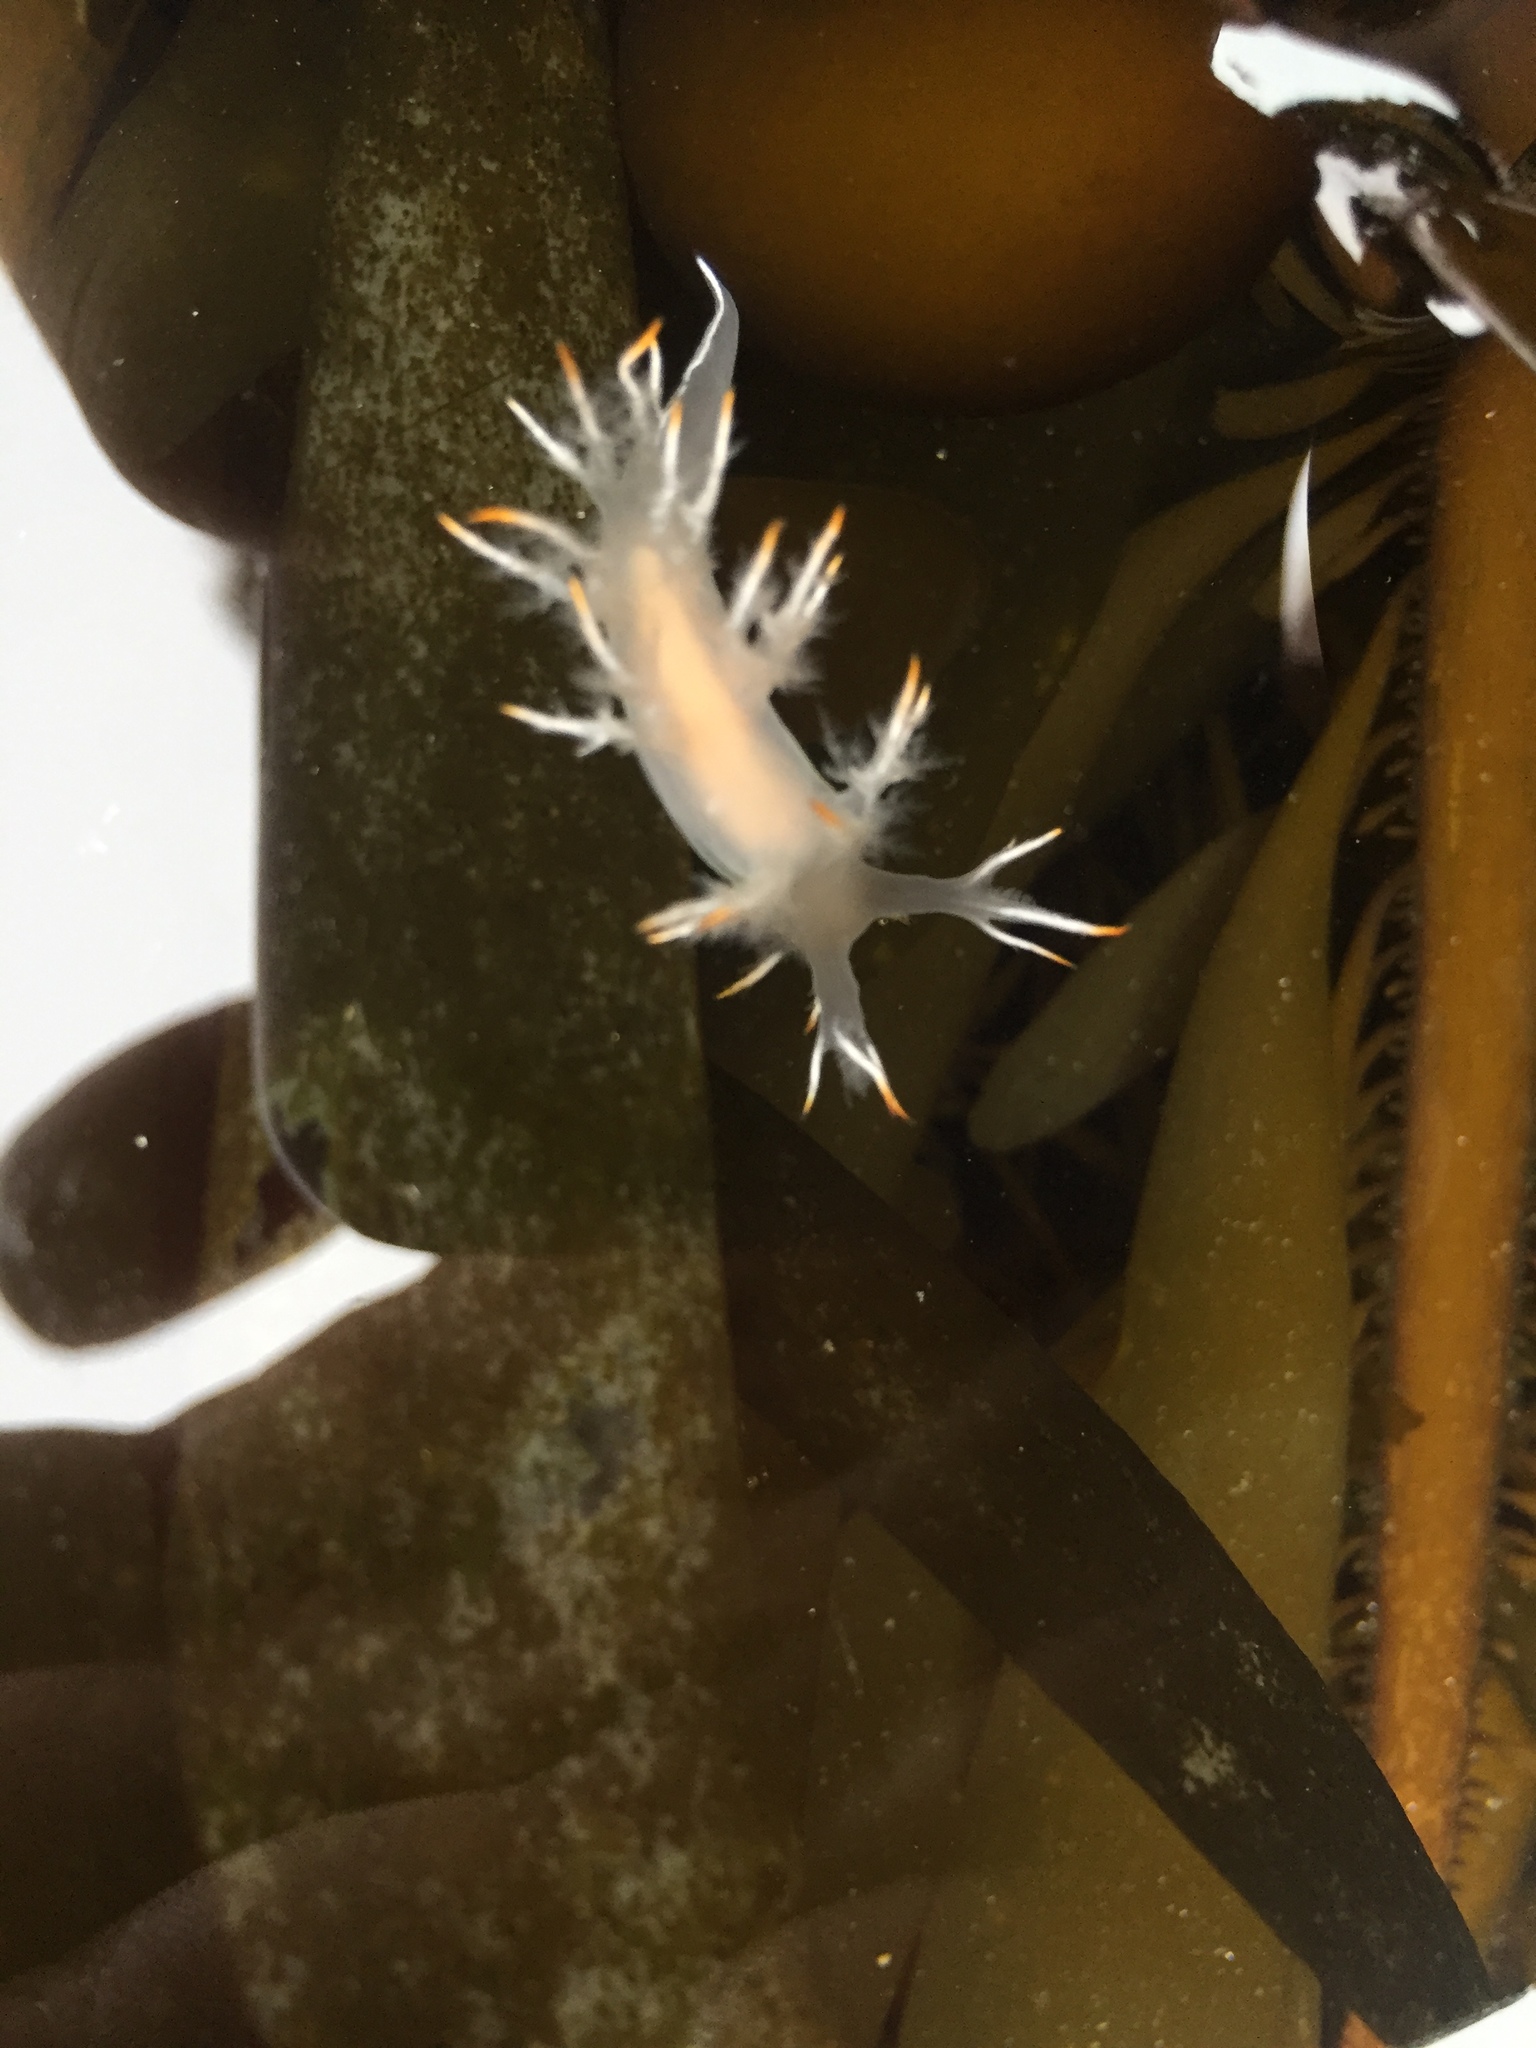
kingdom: Animalia
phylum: Mollusca
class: Gastropoda
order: Nudibranchia
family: Dendronotidae
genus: Dendronotus
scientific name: Dendronotus albus
